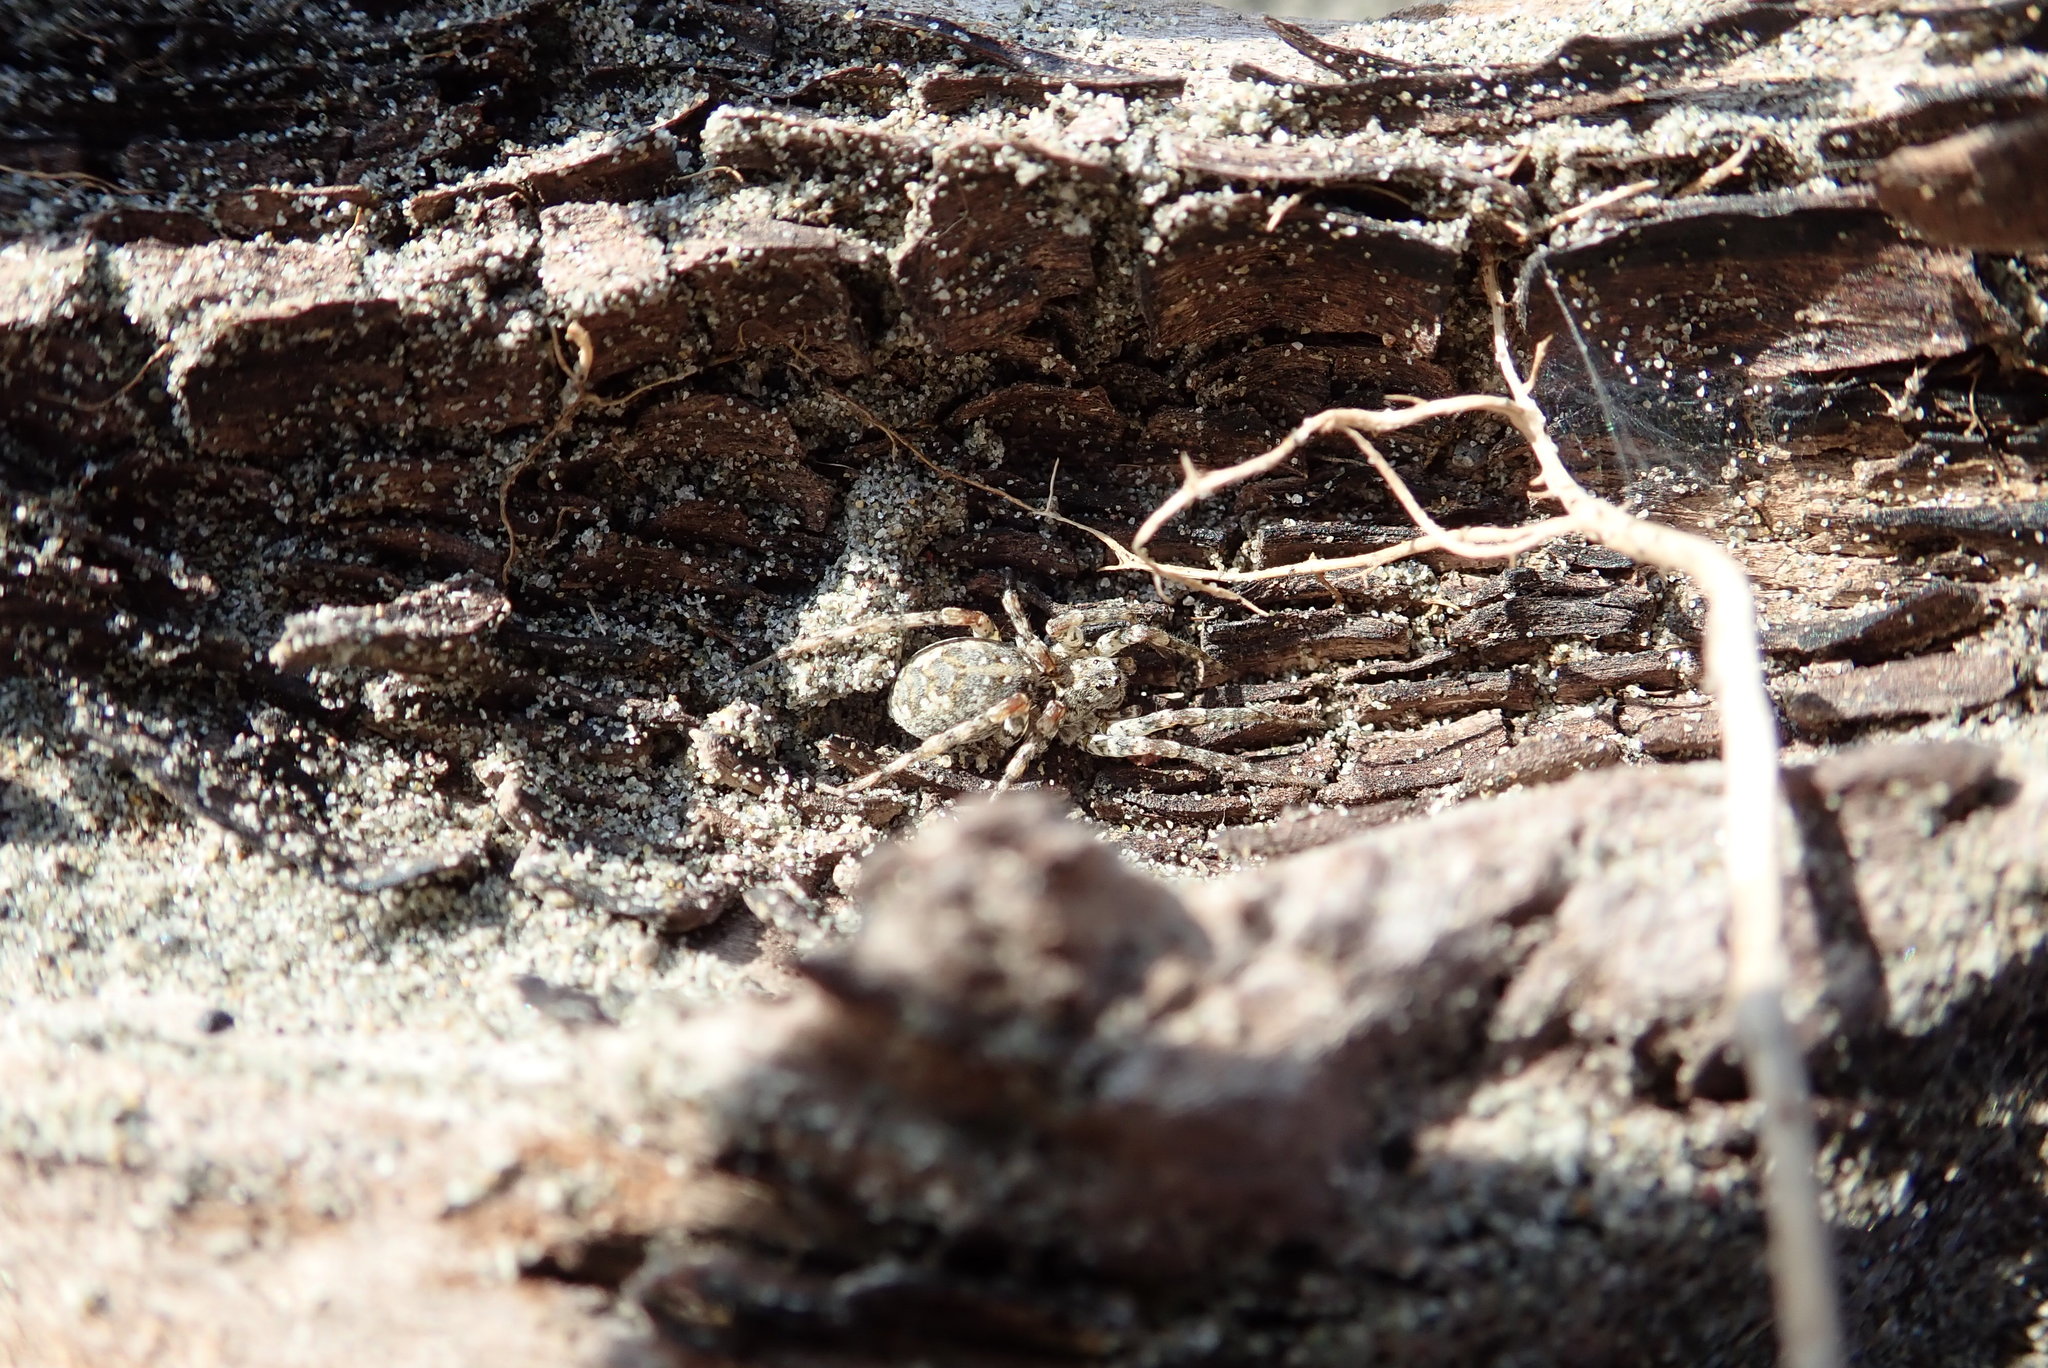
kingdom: Animalia
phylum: Arthropoda
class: Arachnida
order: Araneae
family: Lycosidae
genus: Anoteropsis
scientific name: Anoteropsis litoralis
